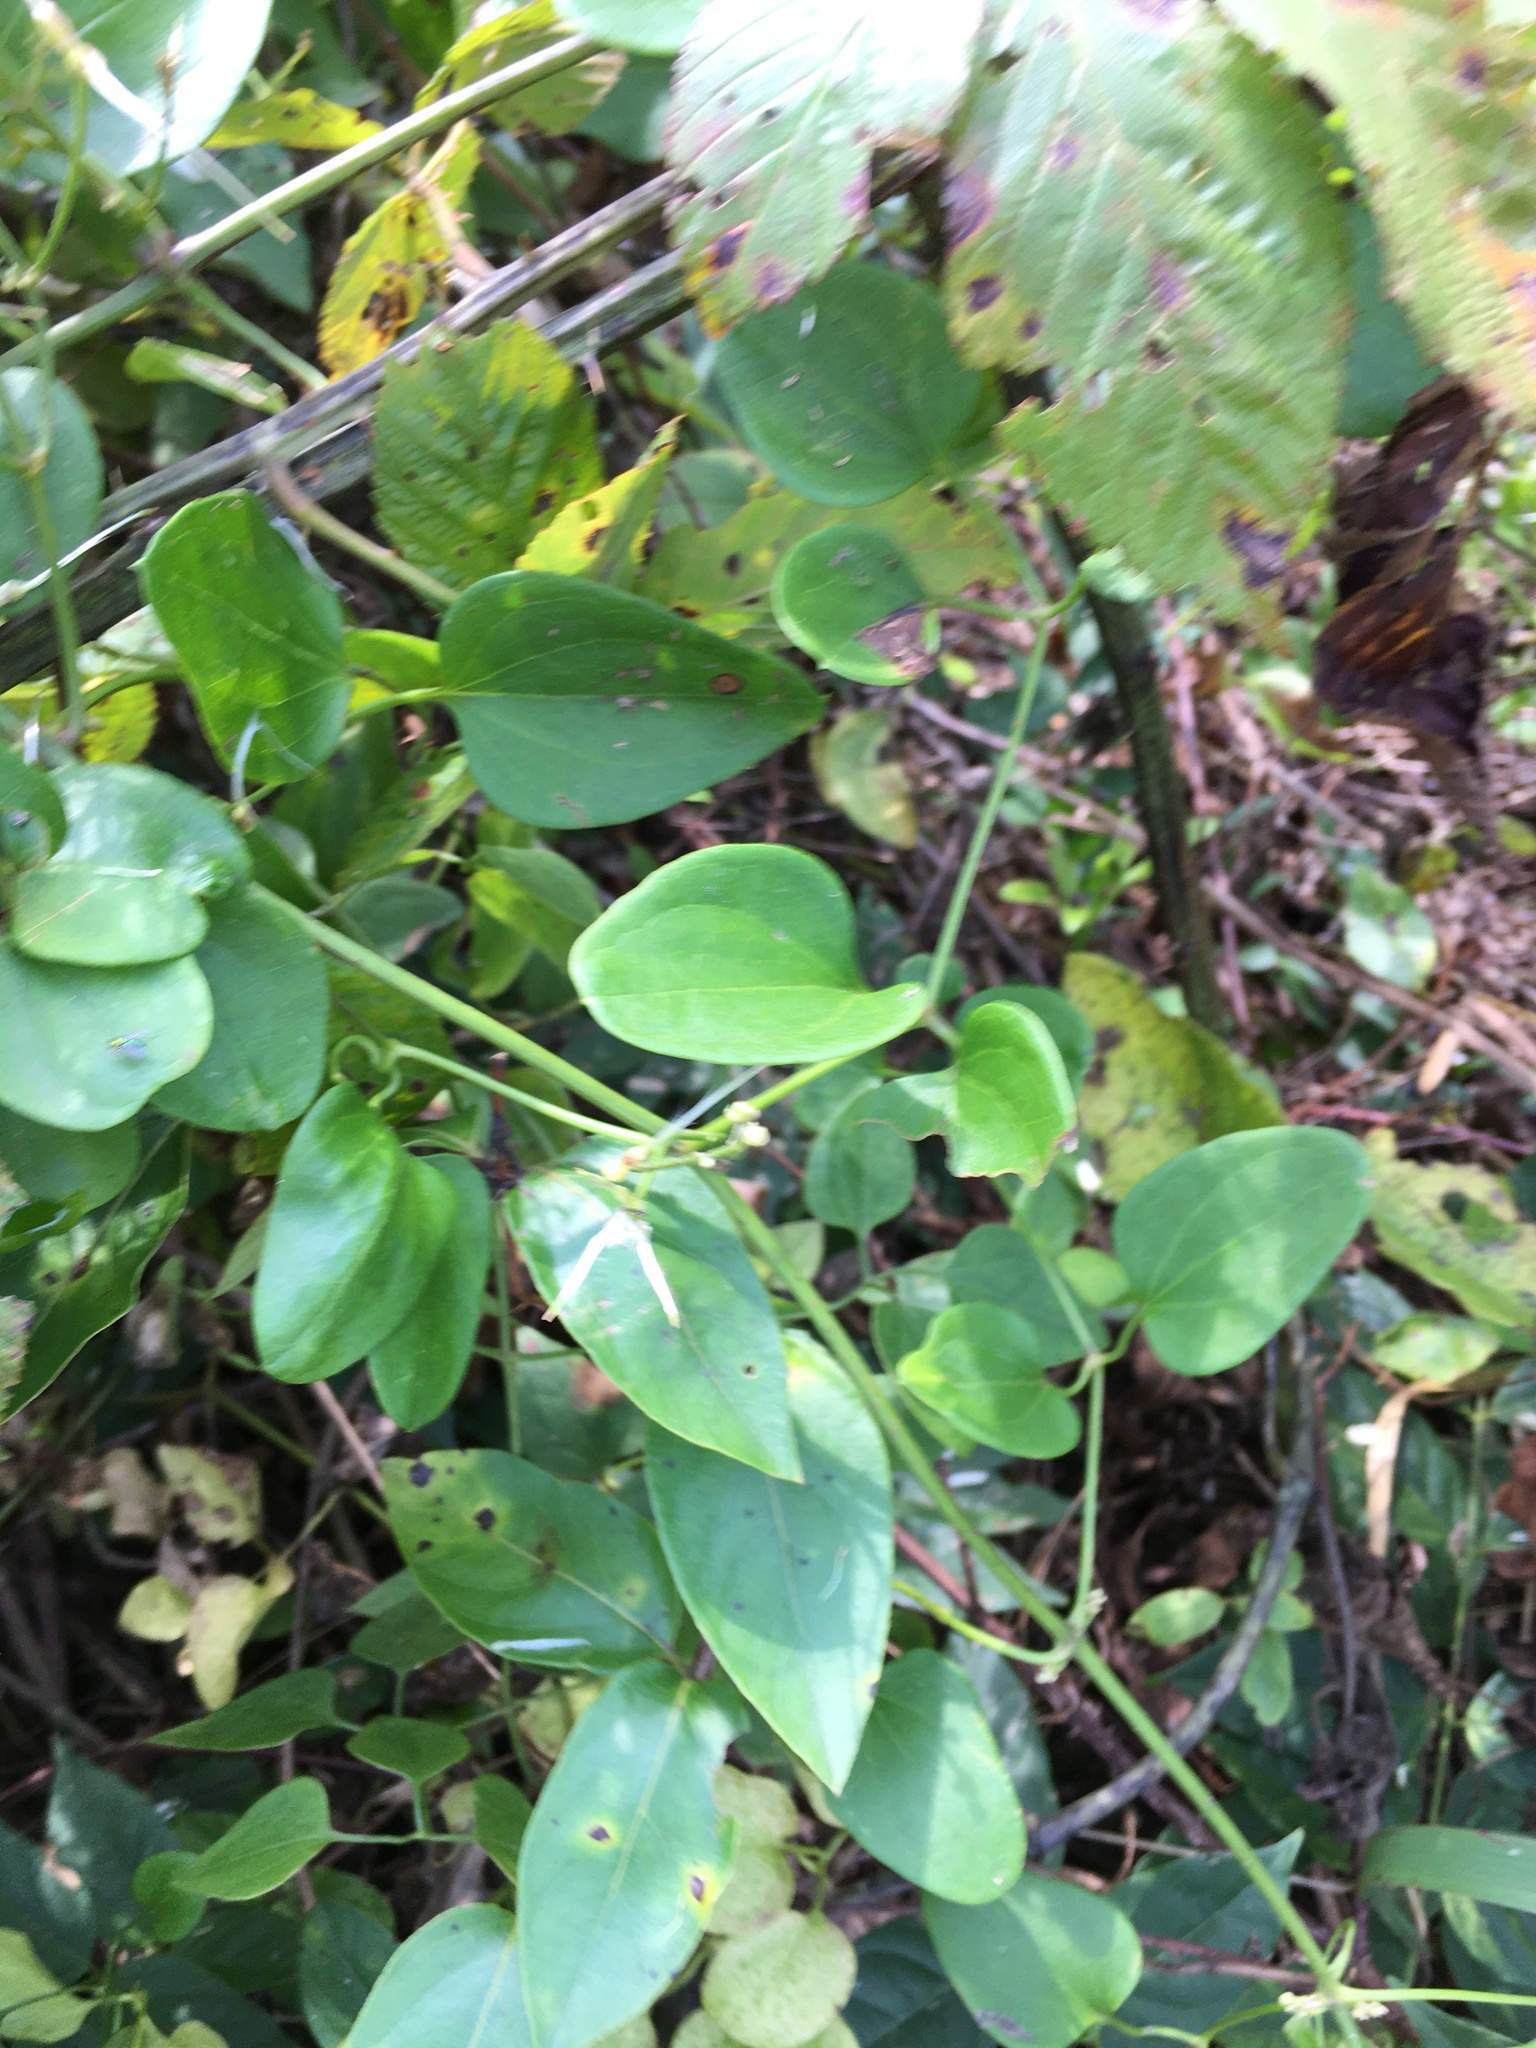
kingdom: Plantae
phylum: Tracheophyta
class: Magnoliopsida
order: Ranunculales
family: Ranunculaceae
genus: Clematis
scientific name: Clematis terniflora
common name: Sweet autumn clematis
